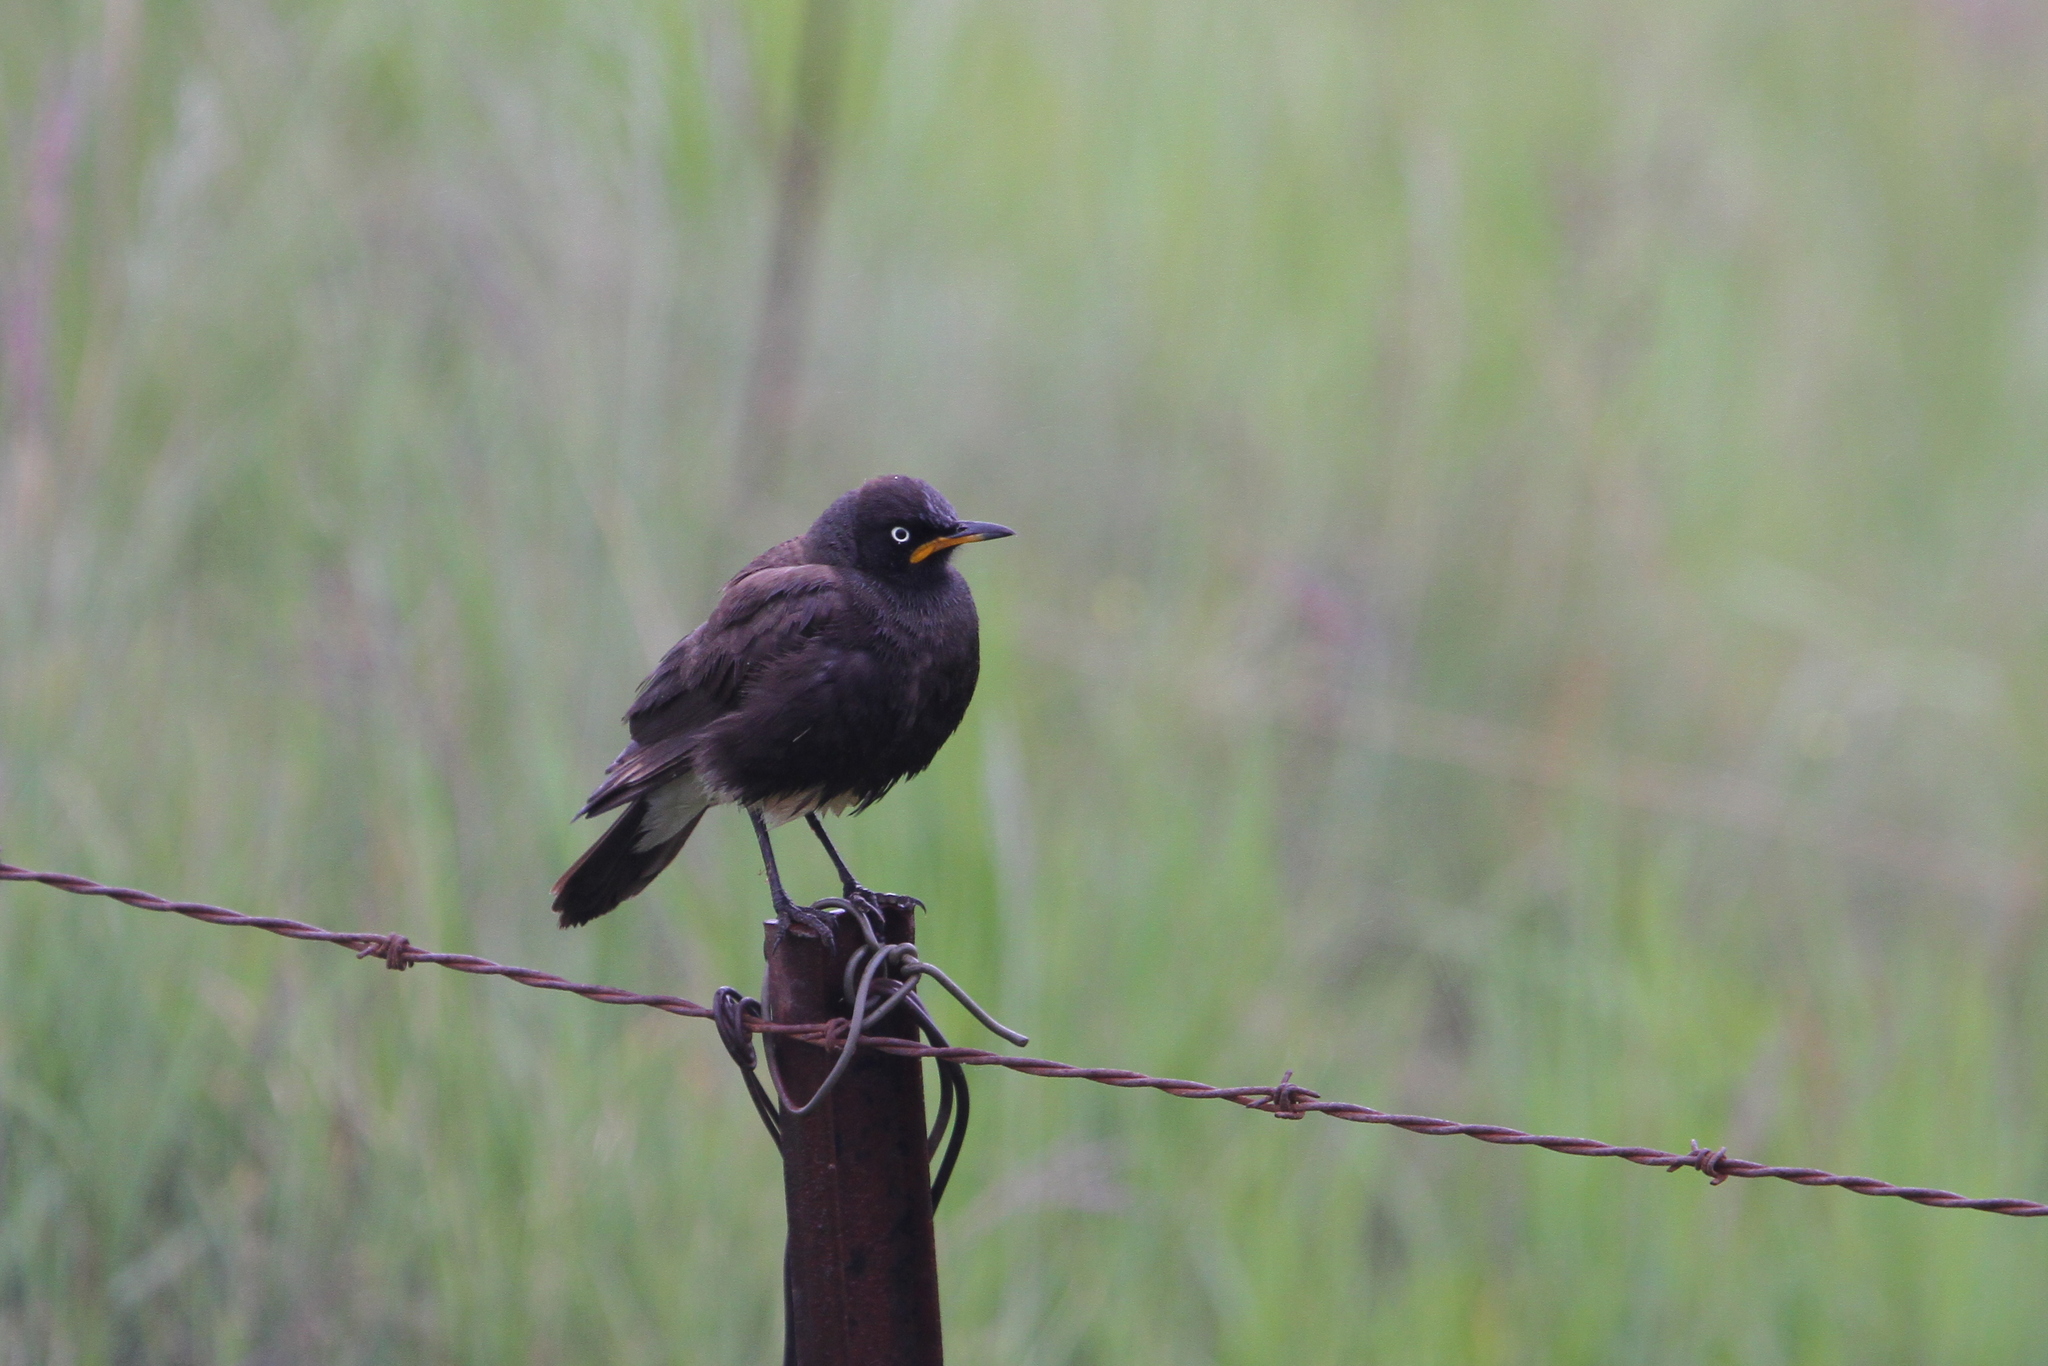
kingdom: Animalia
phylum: Chordata
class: Aves
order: Passeriformes
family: Sturnidae
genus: Lamprotornis
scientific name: Lamprotornis bicolor
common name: Pied starling
